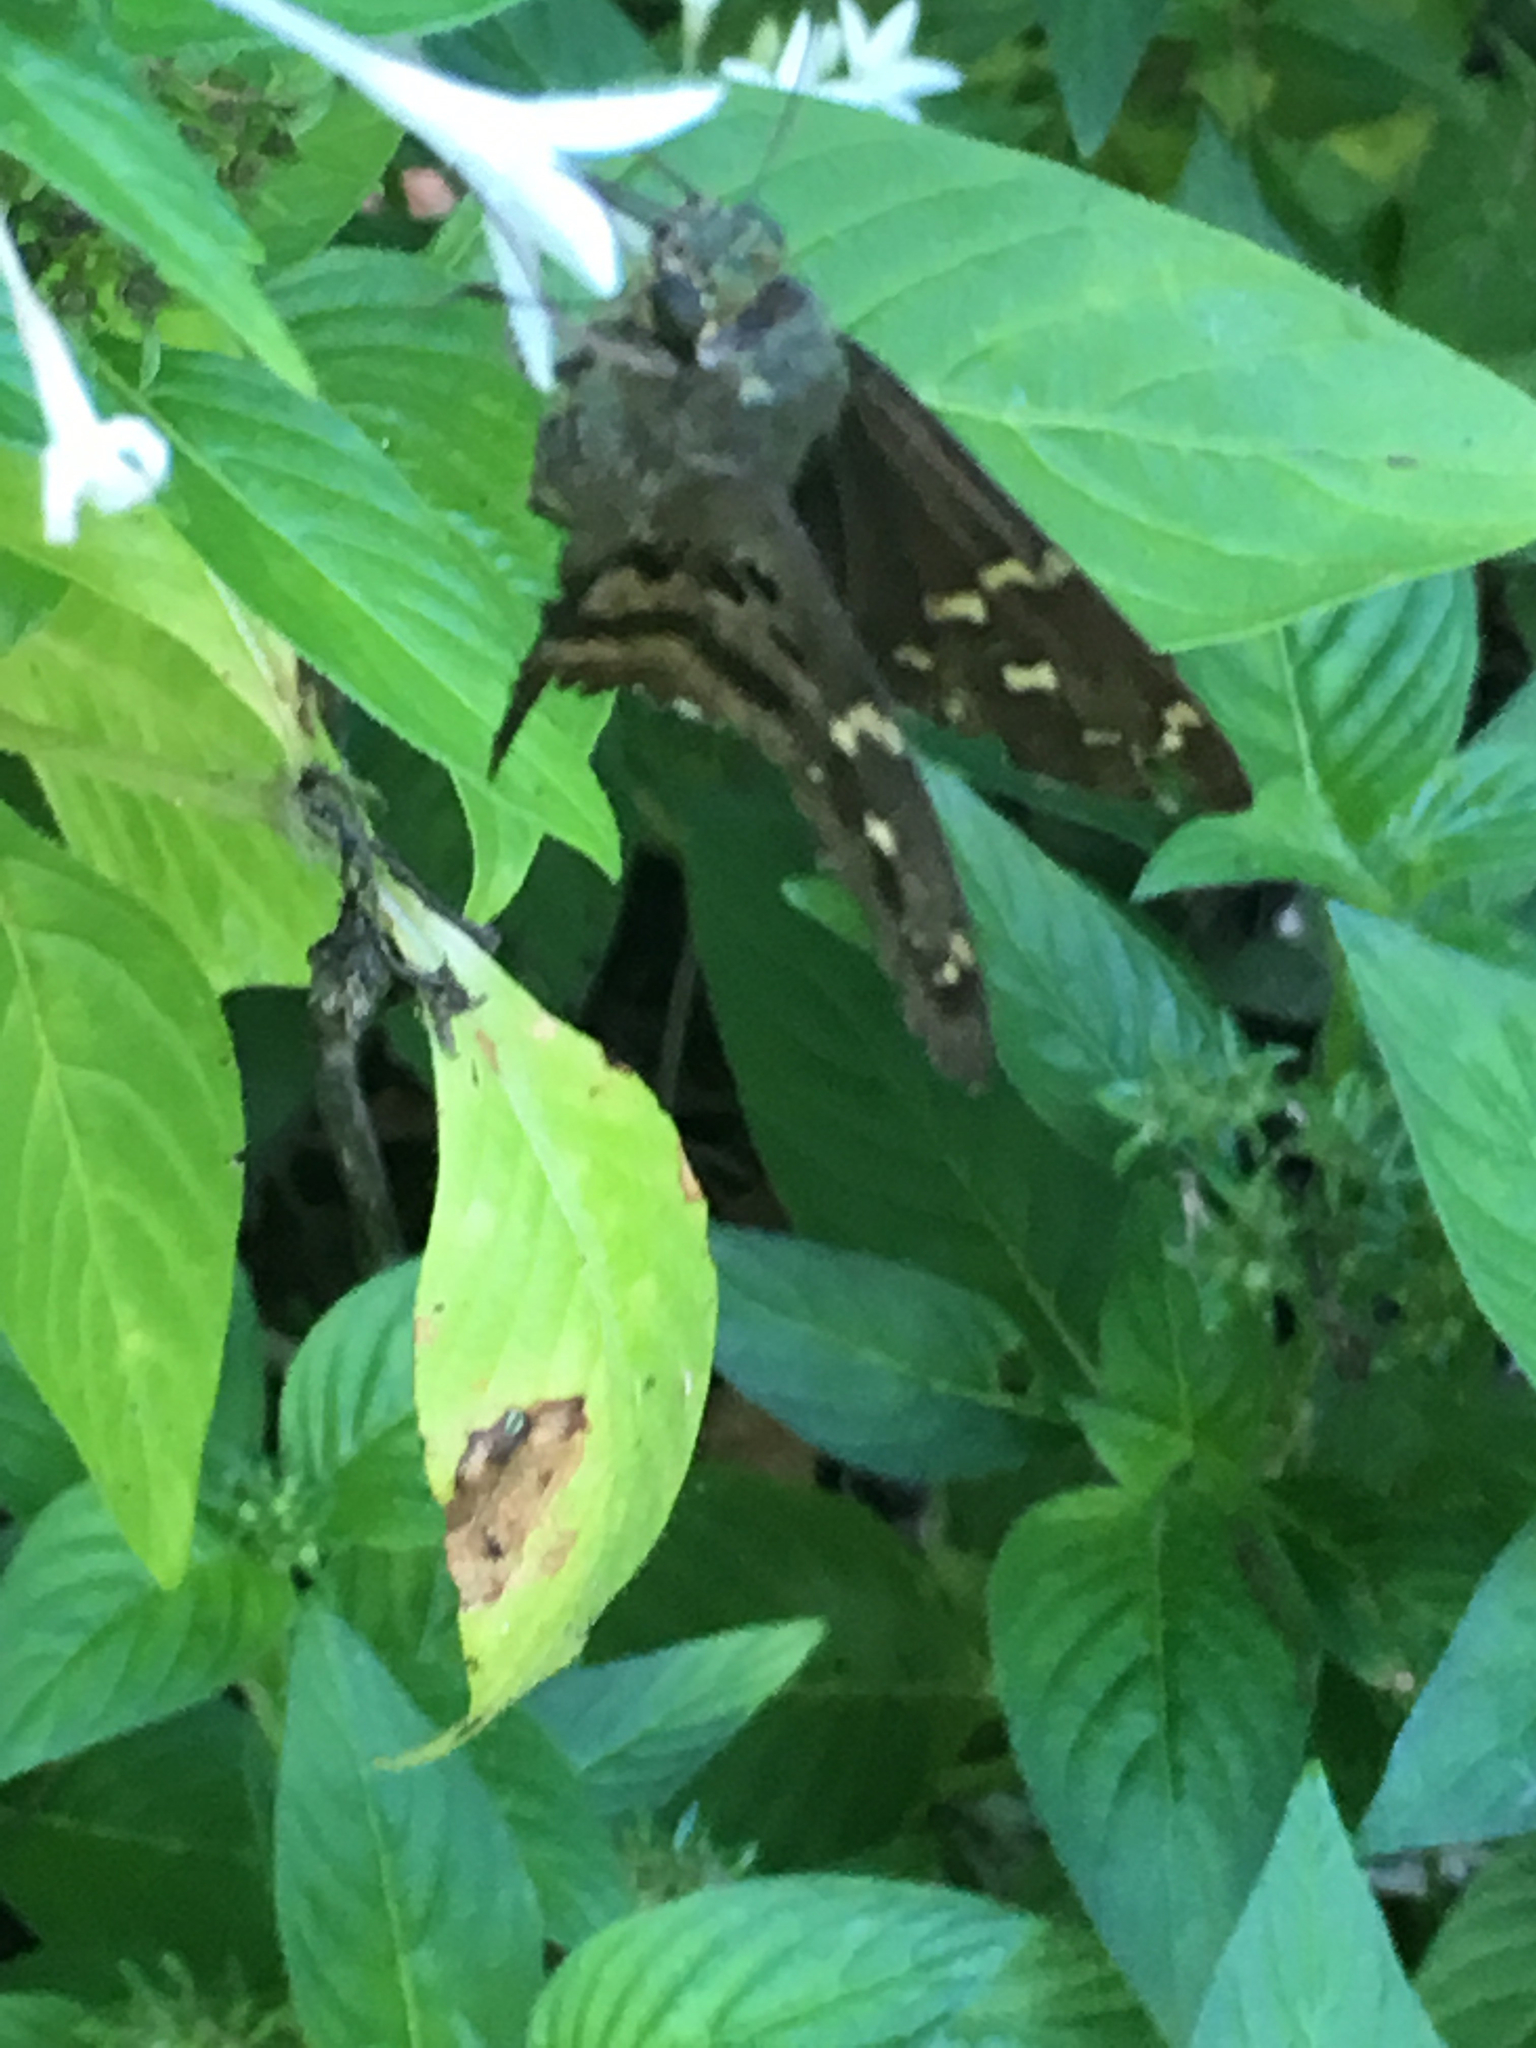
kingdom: Animalia
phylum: Arthropoda
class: Insecta
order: Lepidoptera
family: Hesperiidae
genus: Urbanus
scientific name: Urbanus proteus
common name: Long-tailed skipper
